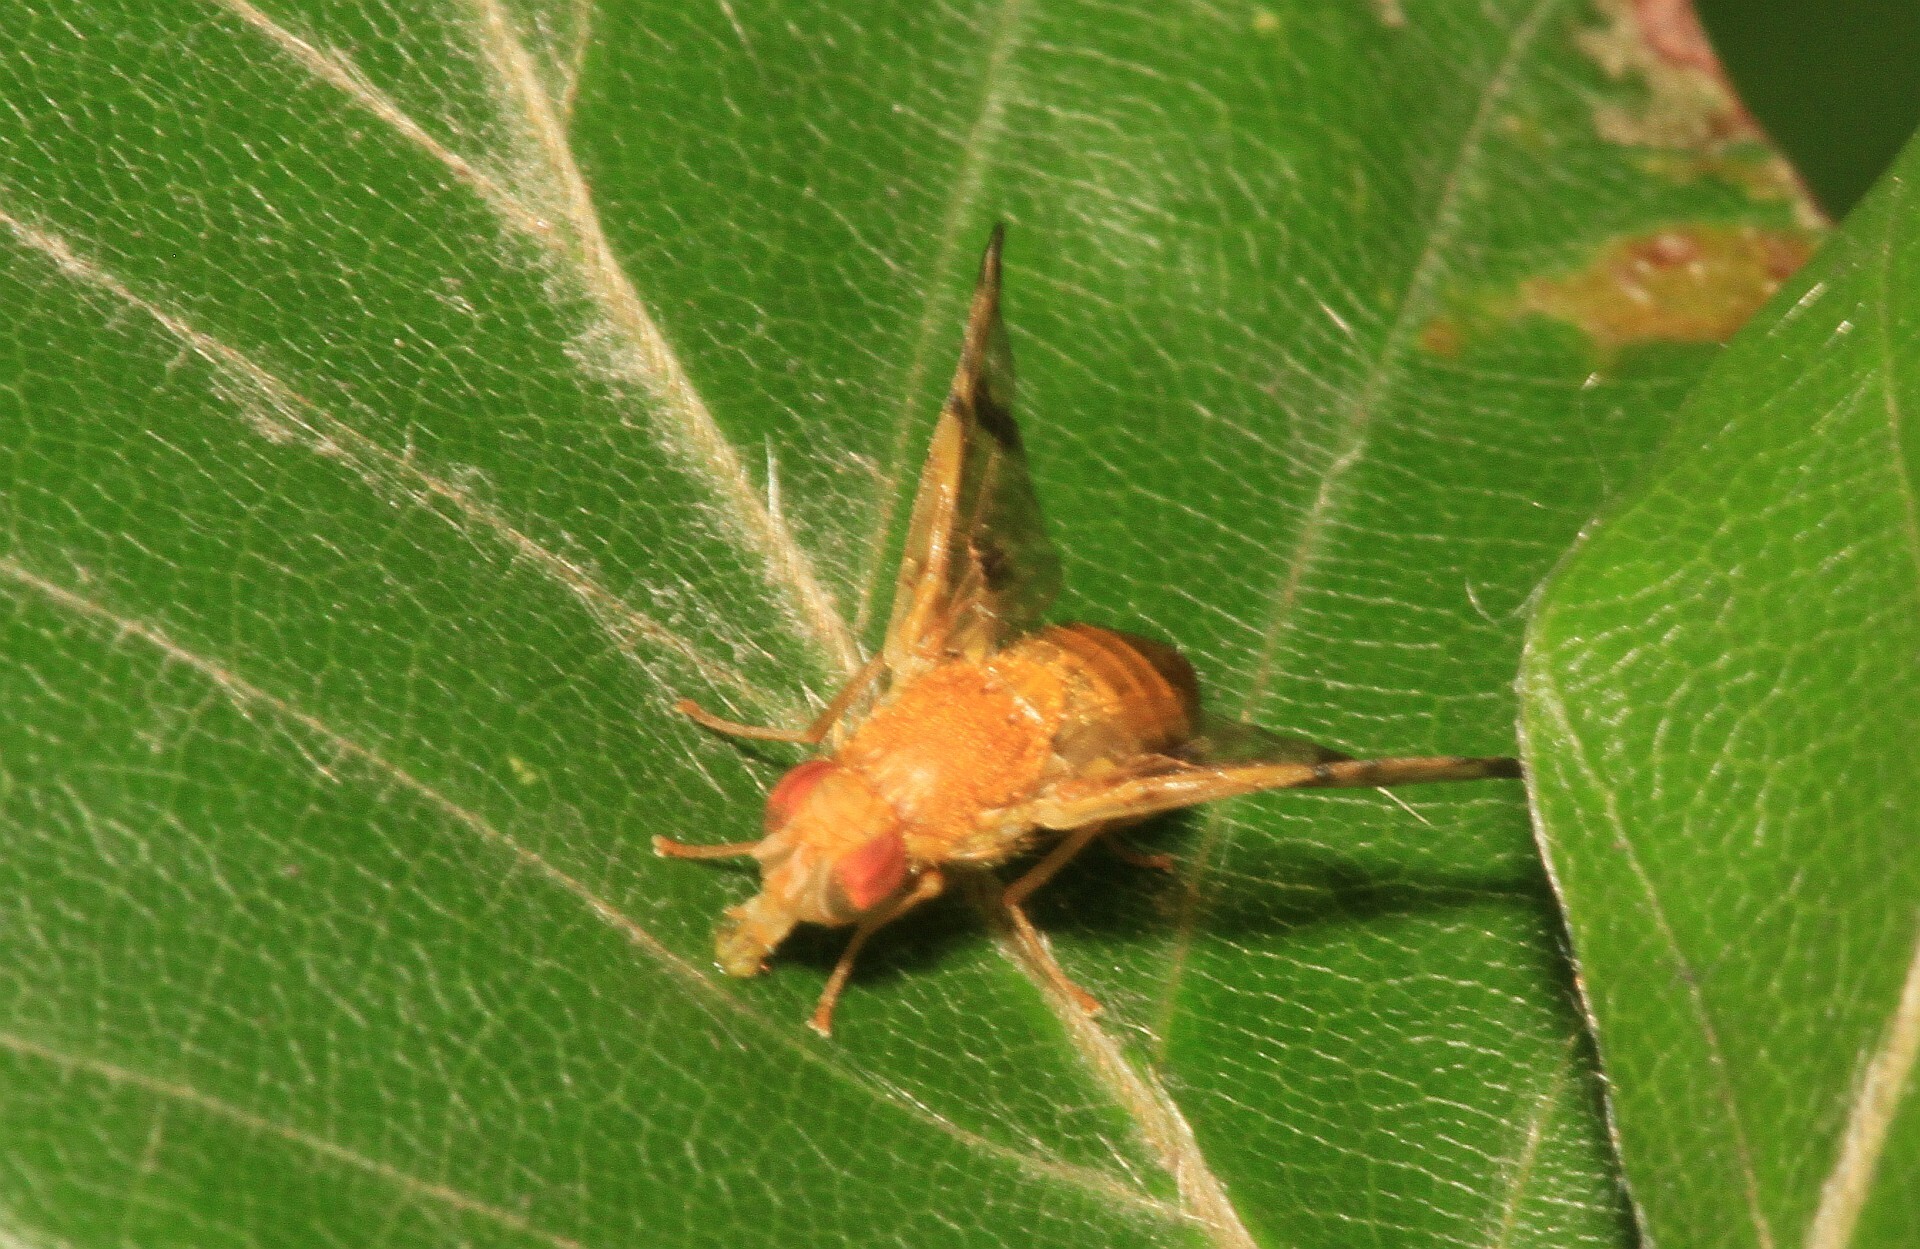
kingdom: Animalia
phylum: Arthropoda
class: Insecta
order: Diptera
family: Tephritidae
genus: Xyphosia
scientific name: Xyphosia miliaria
